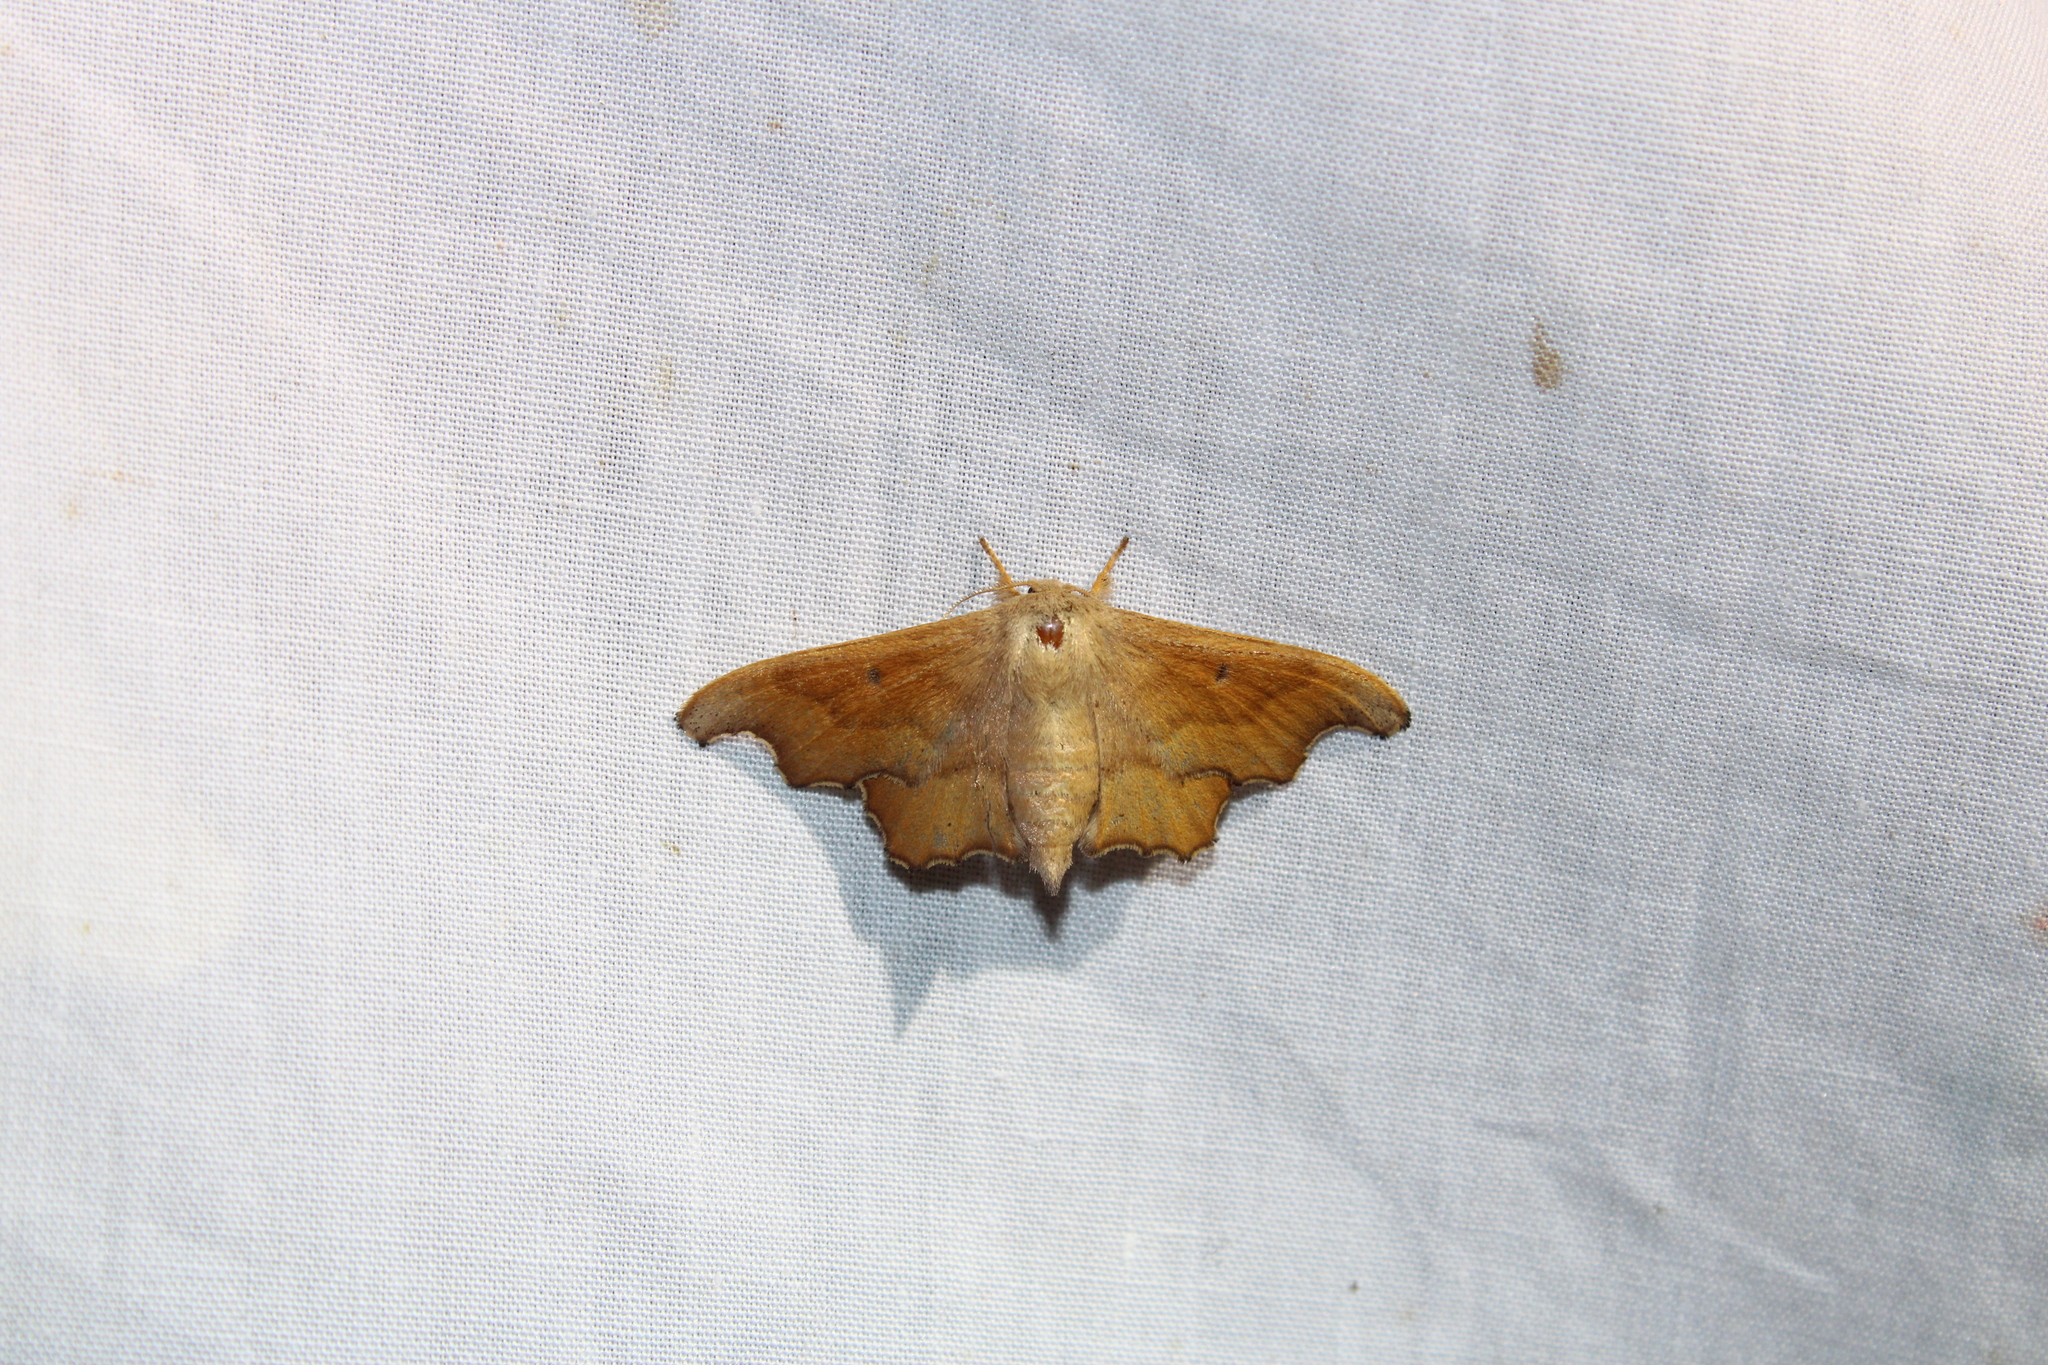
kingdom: Animalia
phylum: Arthropoda
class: Insecta
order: Lepidoptera
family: Mimallonidae
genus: Lacosoma
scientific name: Lacosoma chiridota
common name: Scalloped sack-bearer moth
